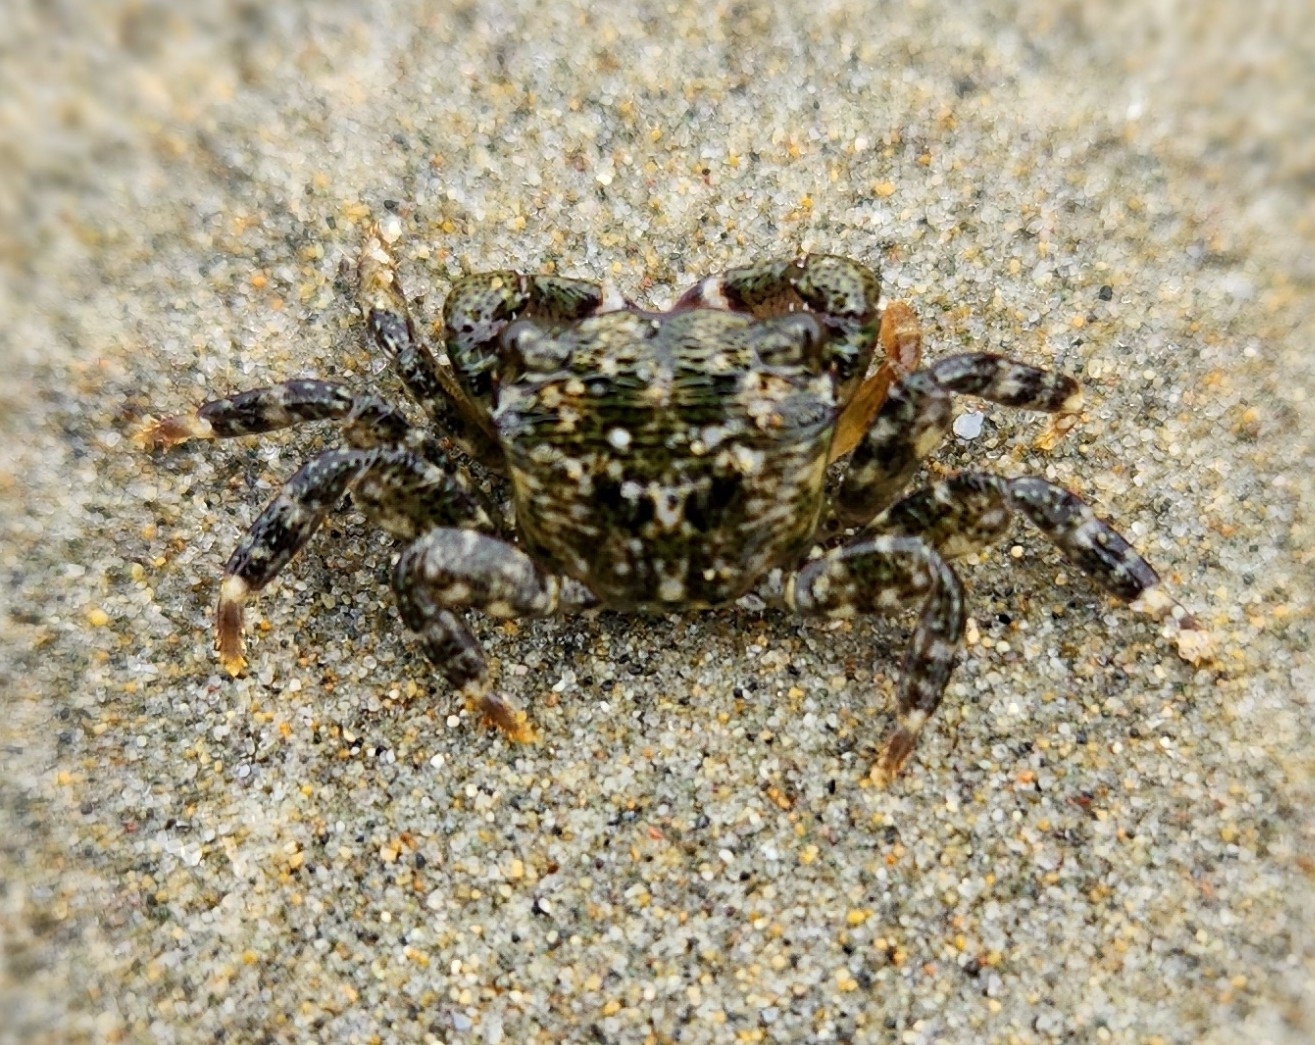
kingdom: Animalia
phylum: Arthropoda
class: Malacostraca
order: Decapoda
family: Grapsidae
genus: Pachygrapsus
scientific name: Pachygrapsus crassipes
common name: Striped shore crab
